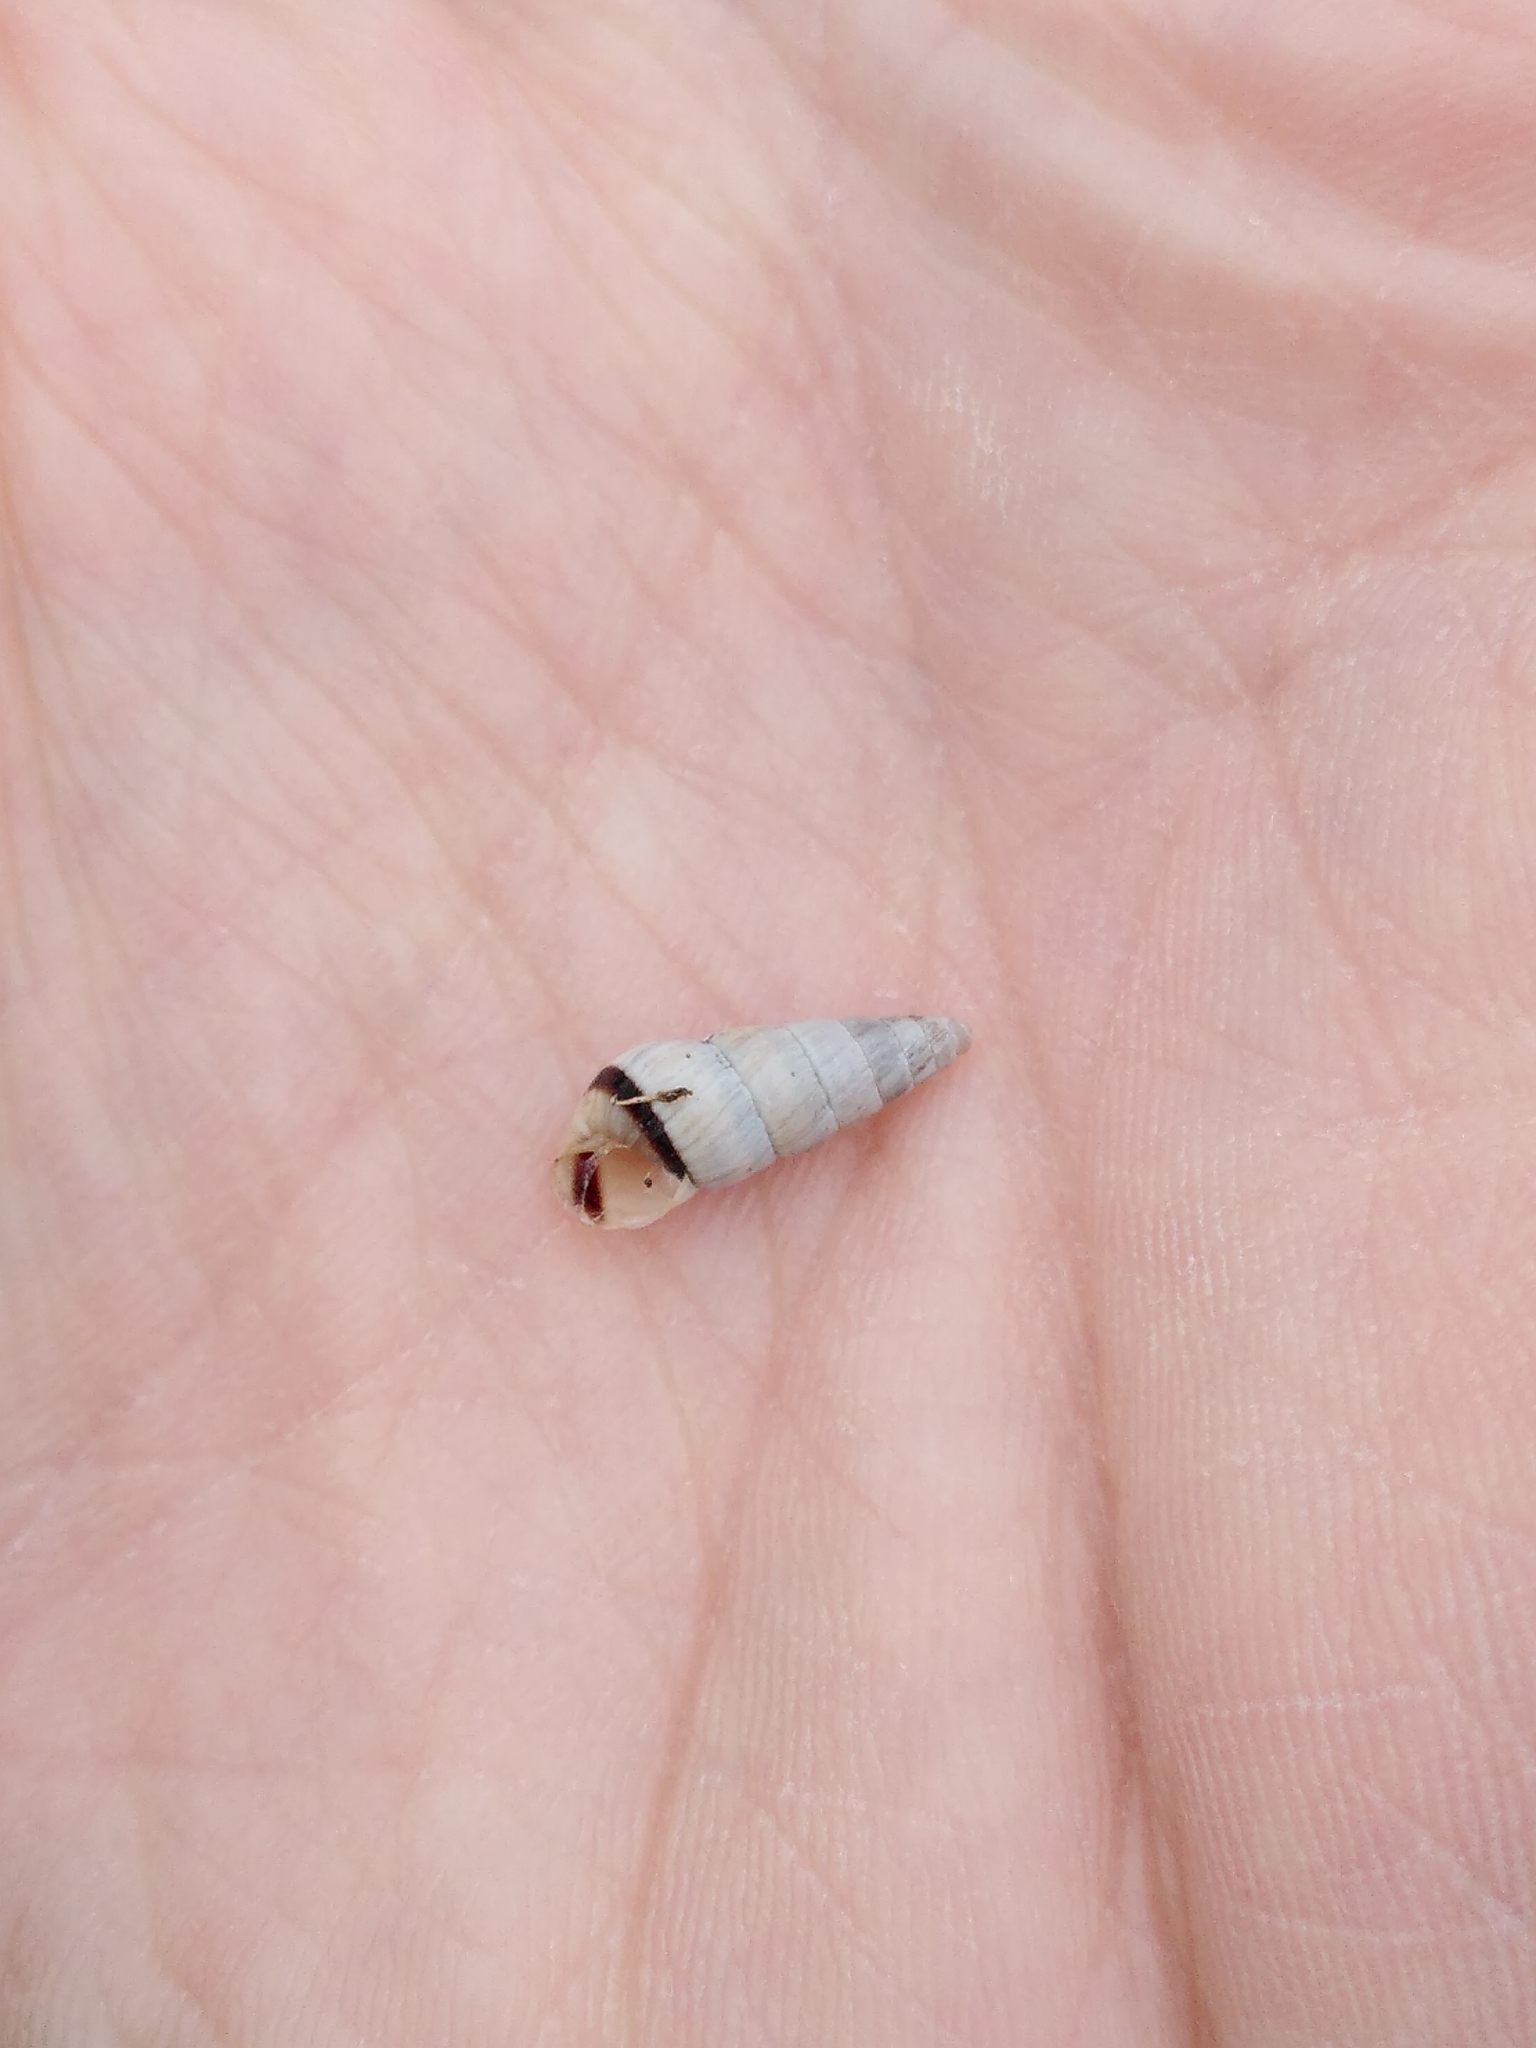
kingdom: Animalia
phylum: Mollusca
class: Gastropoda
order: Stylommatophora
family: Geomitridae
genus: Cochlicella
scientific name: Cochlicella acuta
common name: Pointed snail
